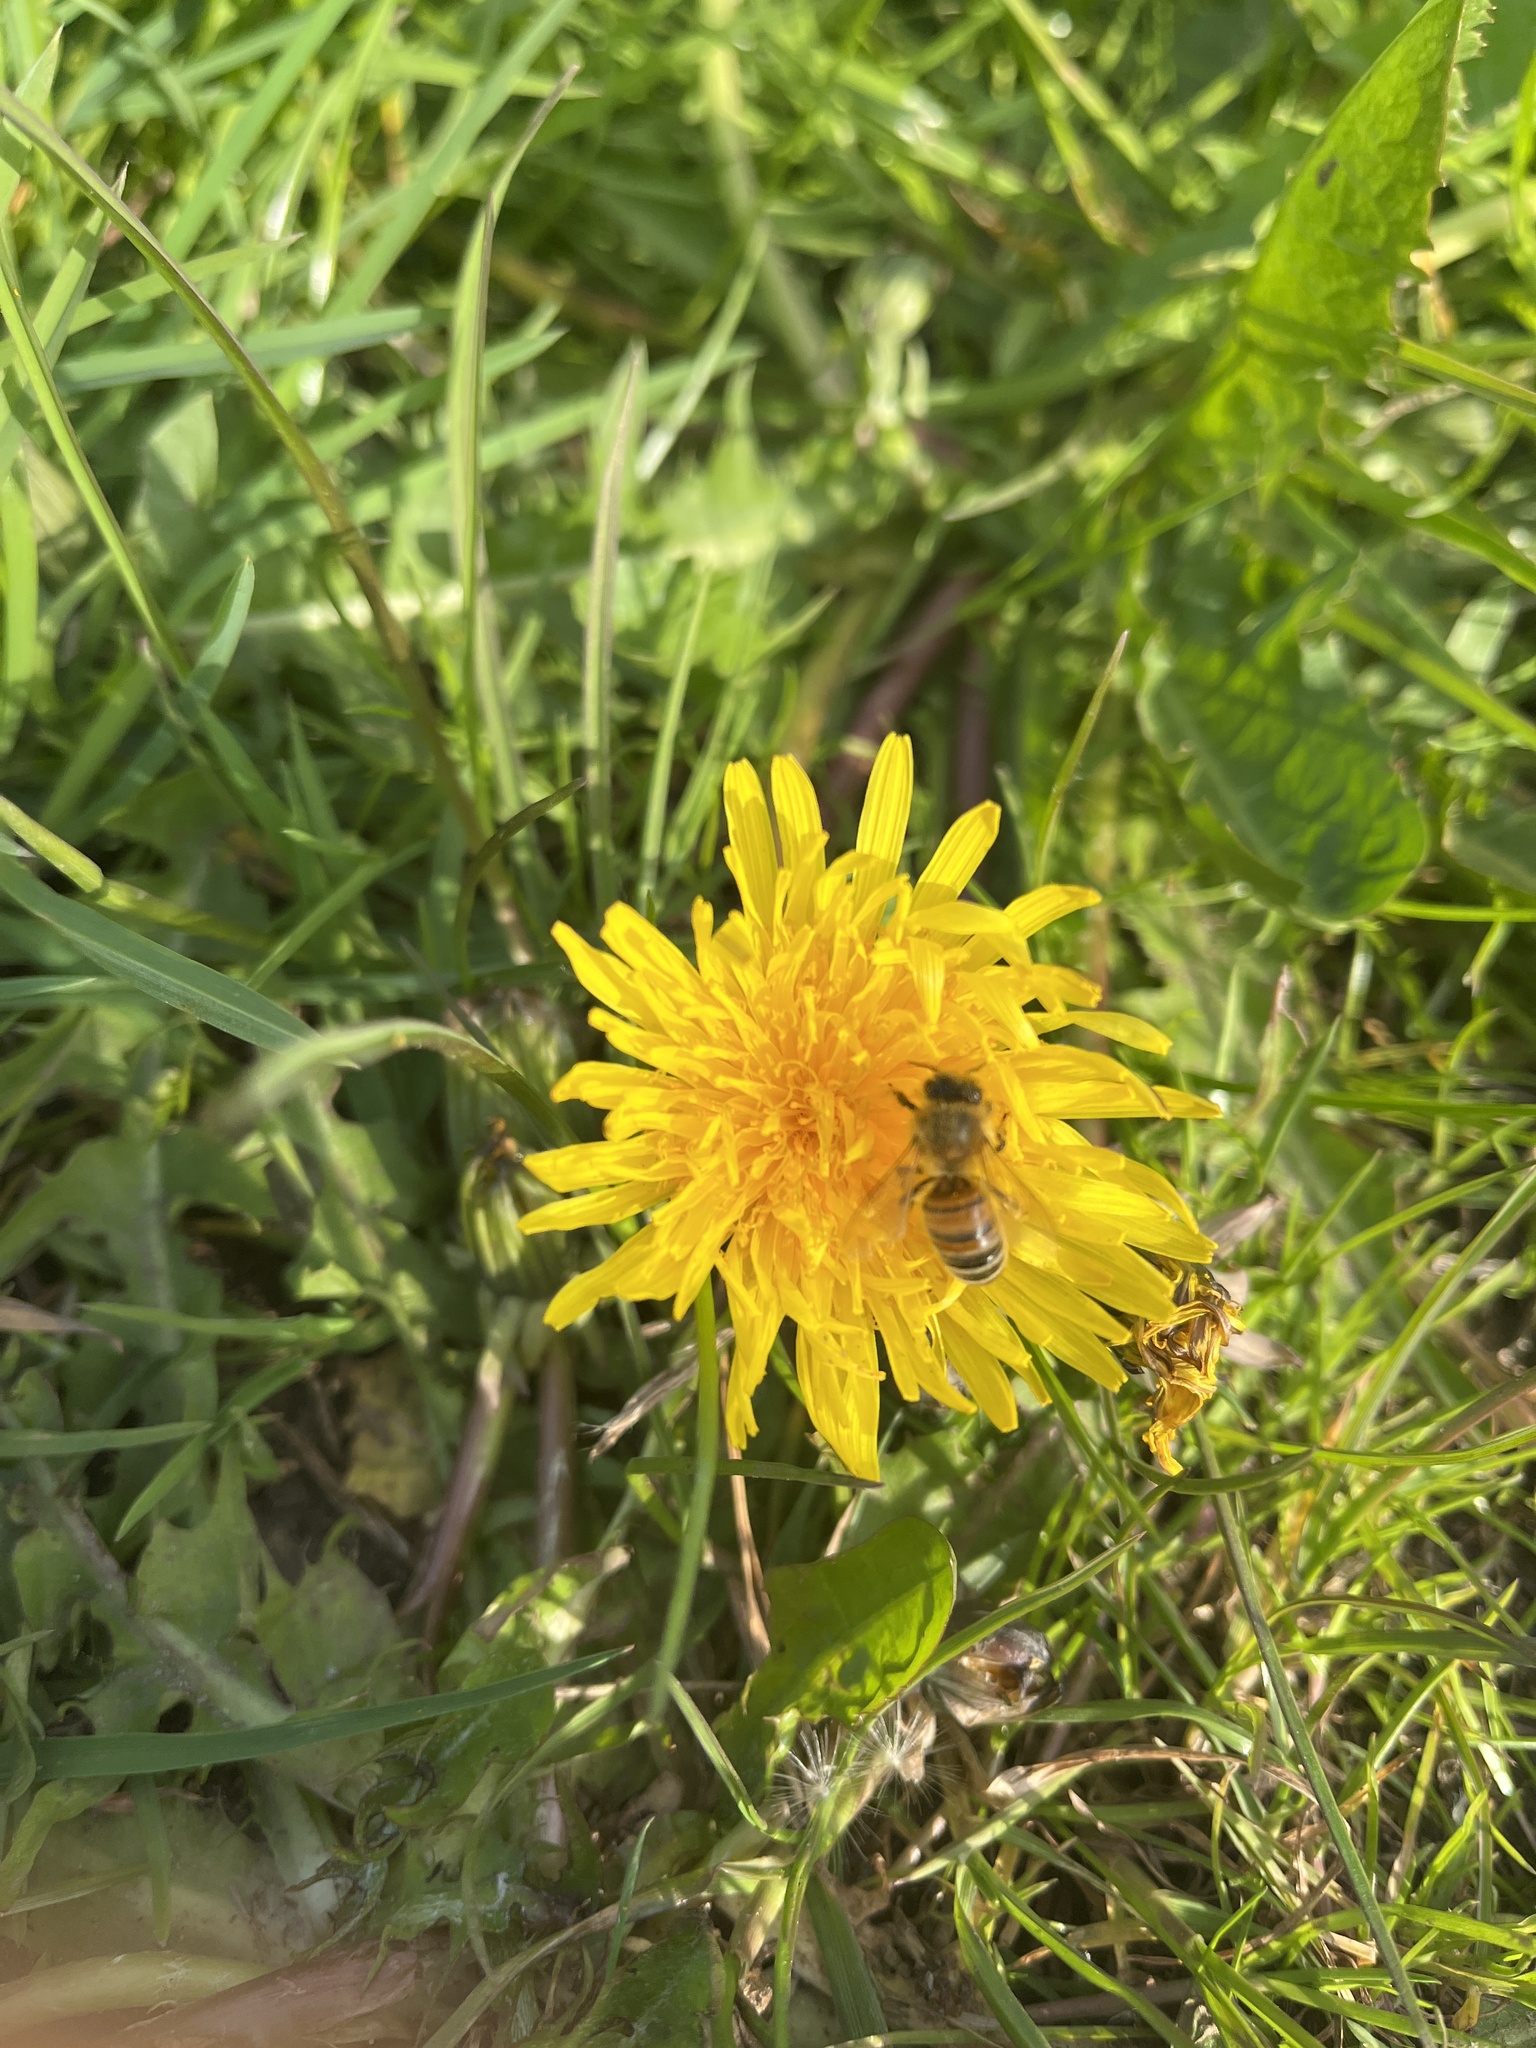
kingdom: Animalia
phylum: Arthropoda
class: Insecta
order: Hymenoptera
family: Apidae
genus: Apis
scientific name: Apis mellifera
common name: Honey bee
